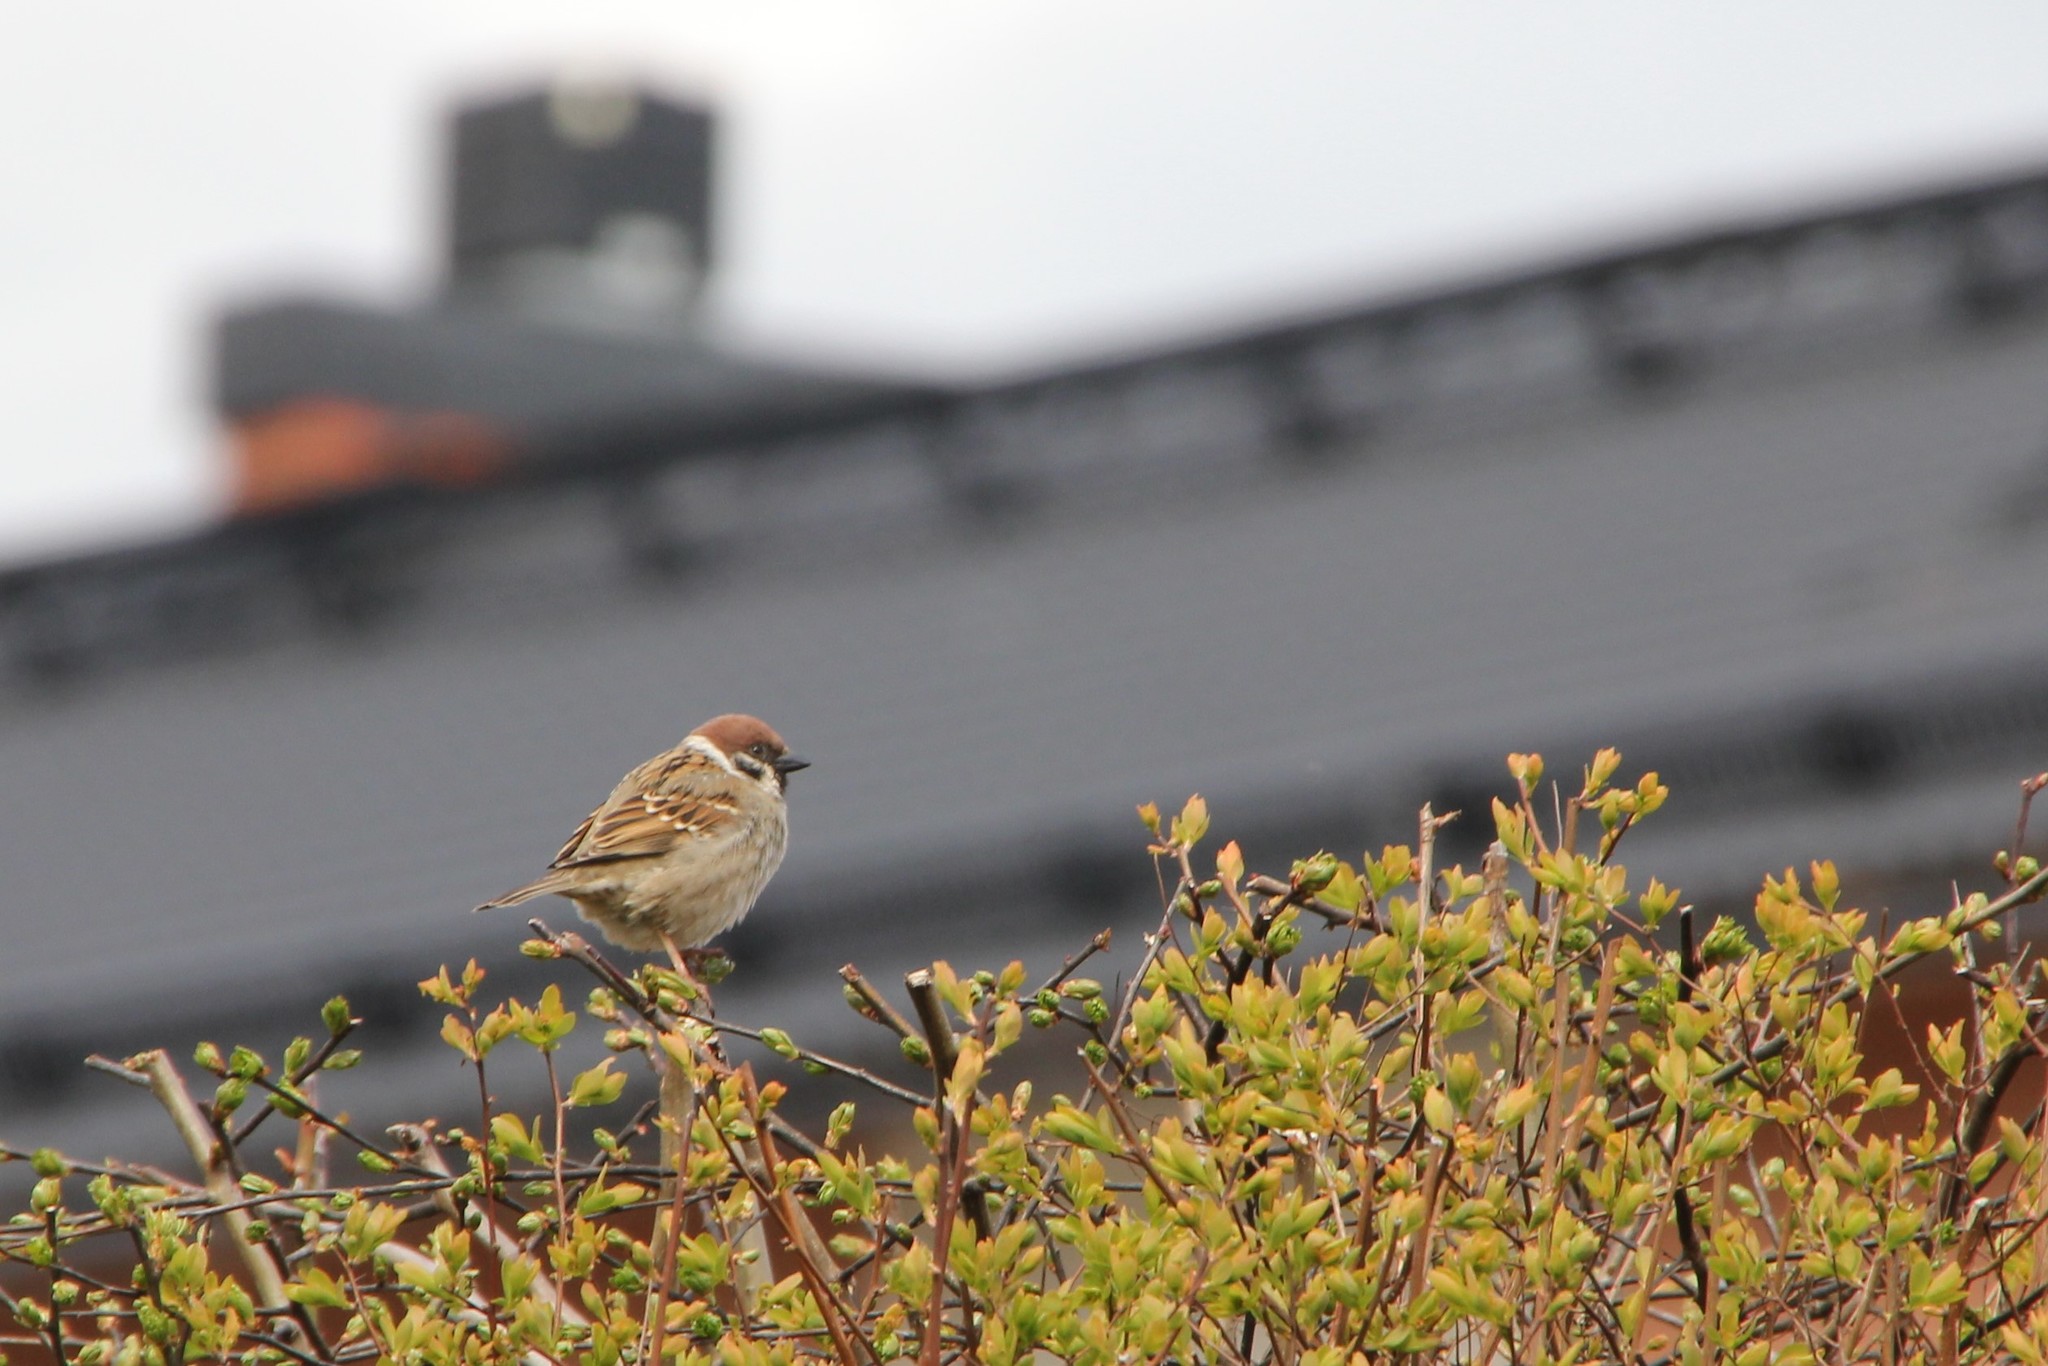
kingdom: Animalia
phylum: Chordata
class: Aves
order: Passeriformes
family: Passeridae
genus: Passer
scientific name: Passer montanus
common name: Eurasian tree sparrow
